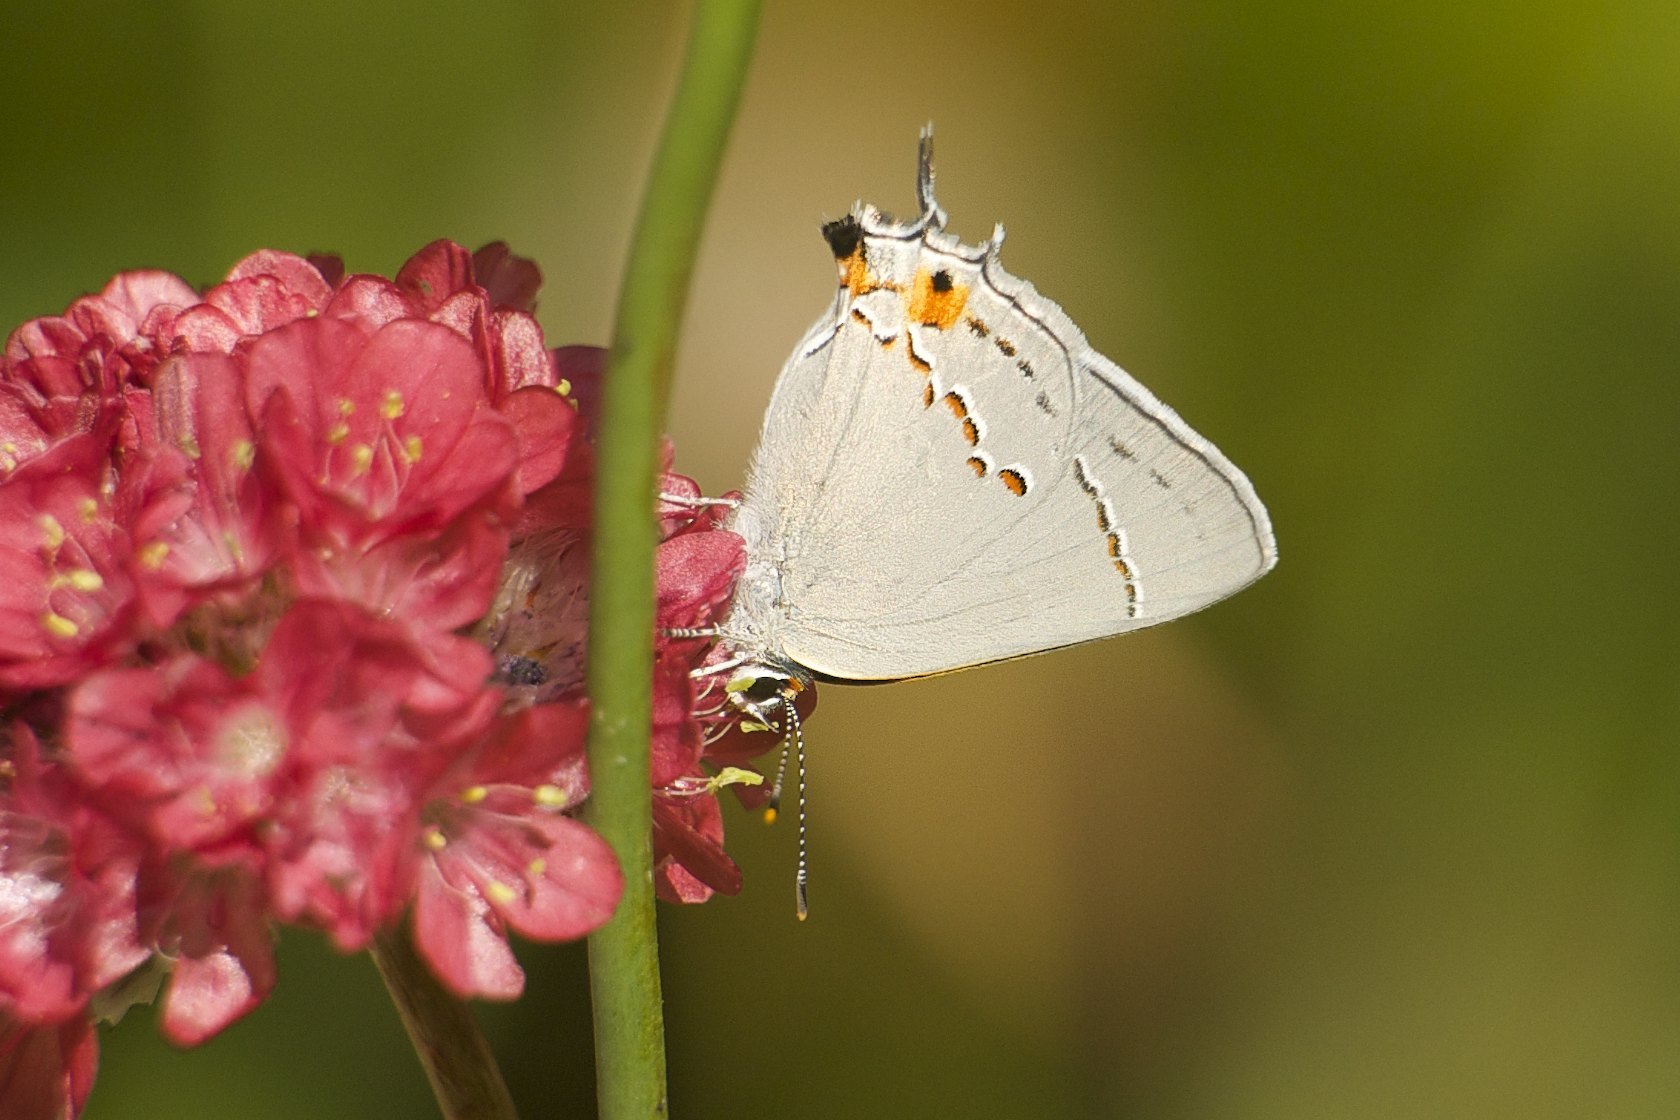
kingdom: Animalia
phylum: Arthropoda
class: Insecta
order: Lepidoptera
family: Lycaenidae
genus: Strymon
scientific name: Strymon melinus
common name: Gray hairstreak
